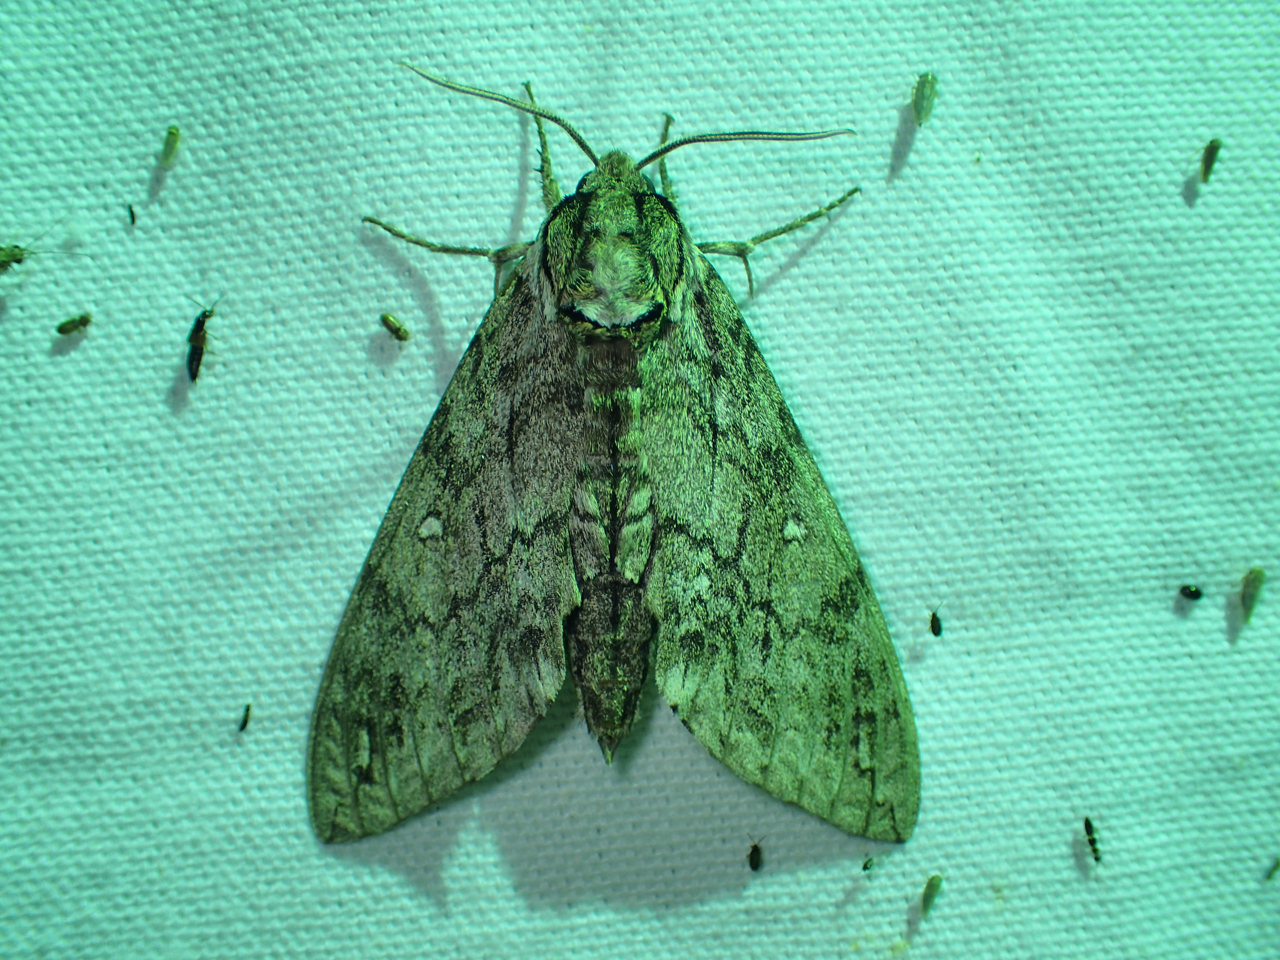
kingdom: Animalia
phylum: Arthropoda
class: Insecta
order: Lepidoptera
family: Sphingidae
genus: Ceratomia
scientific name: Ceratomia undulosa
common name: Waved sphinx
